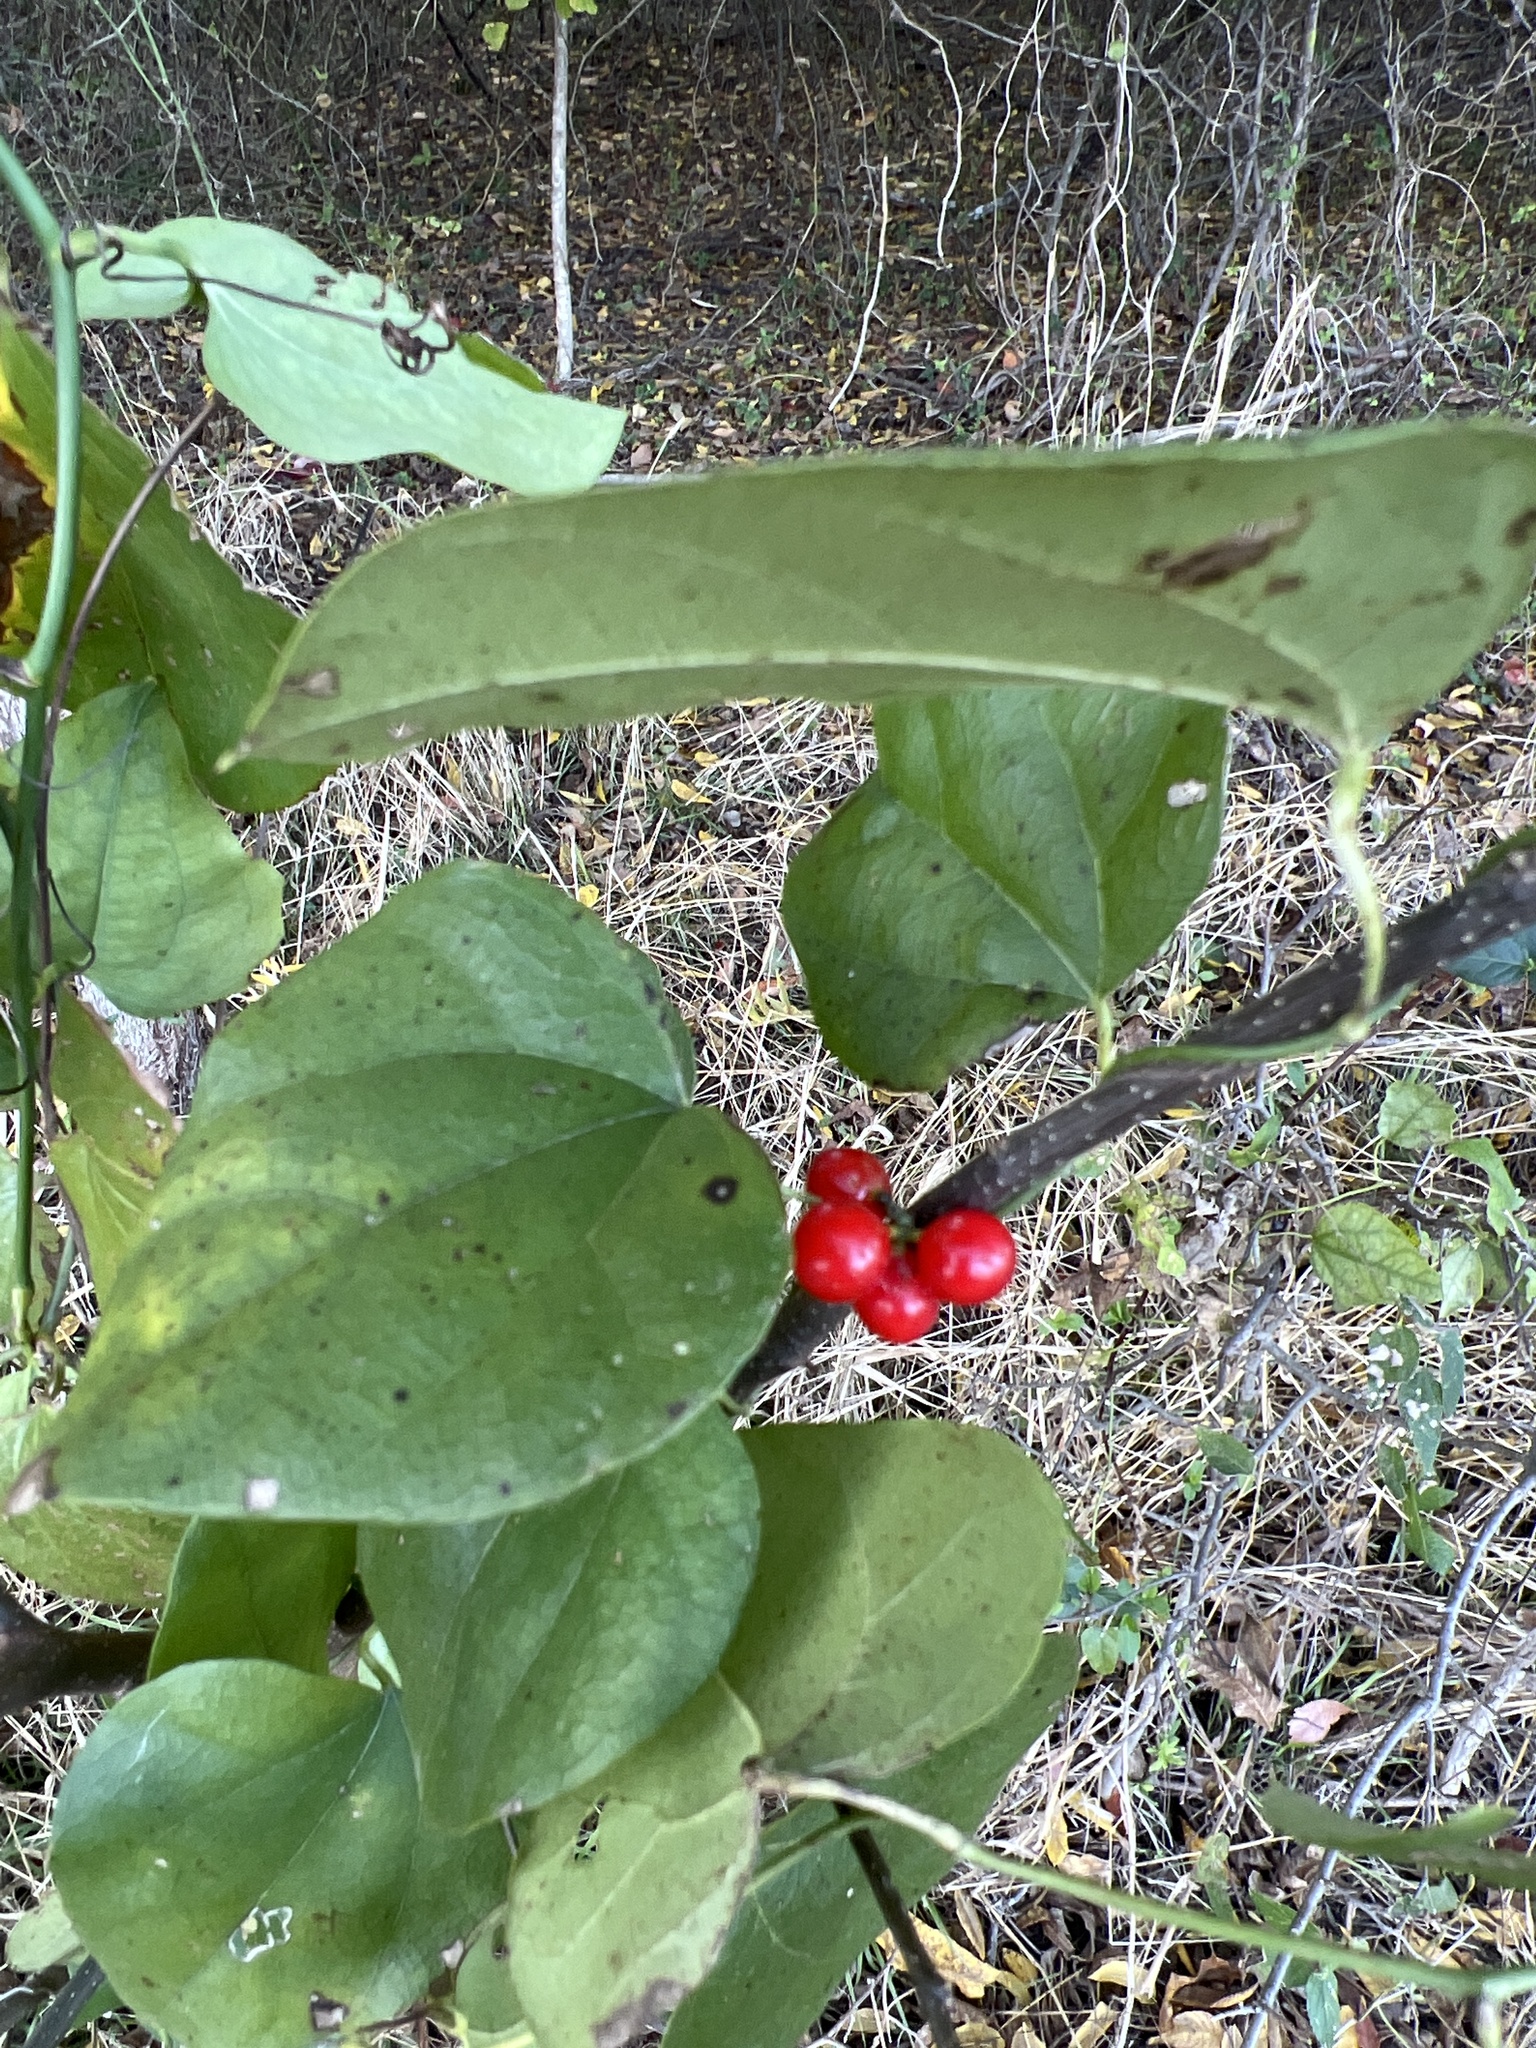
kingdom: Plantae
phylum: Tracheophyta
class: Magnoliopsida
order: Ranunculales
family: Menispermaceae
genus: Cocculus
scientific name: Cocculus carolinus
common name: Carolina moonseed
